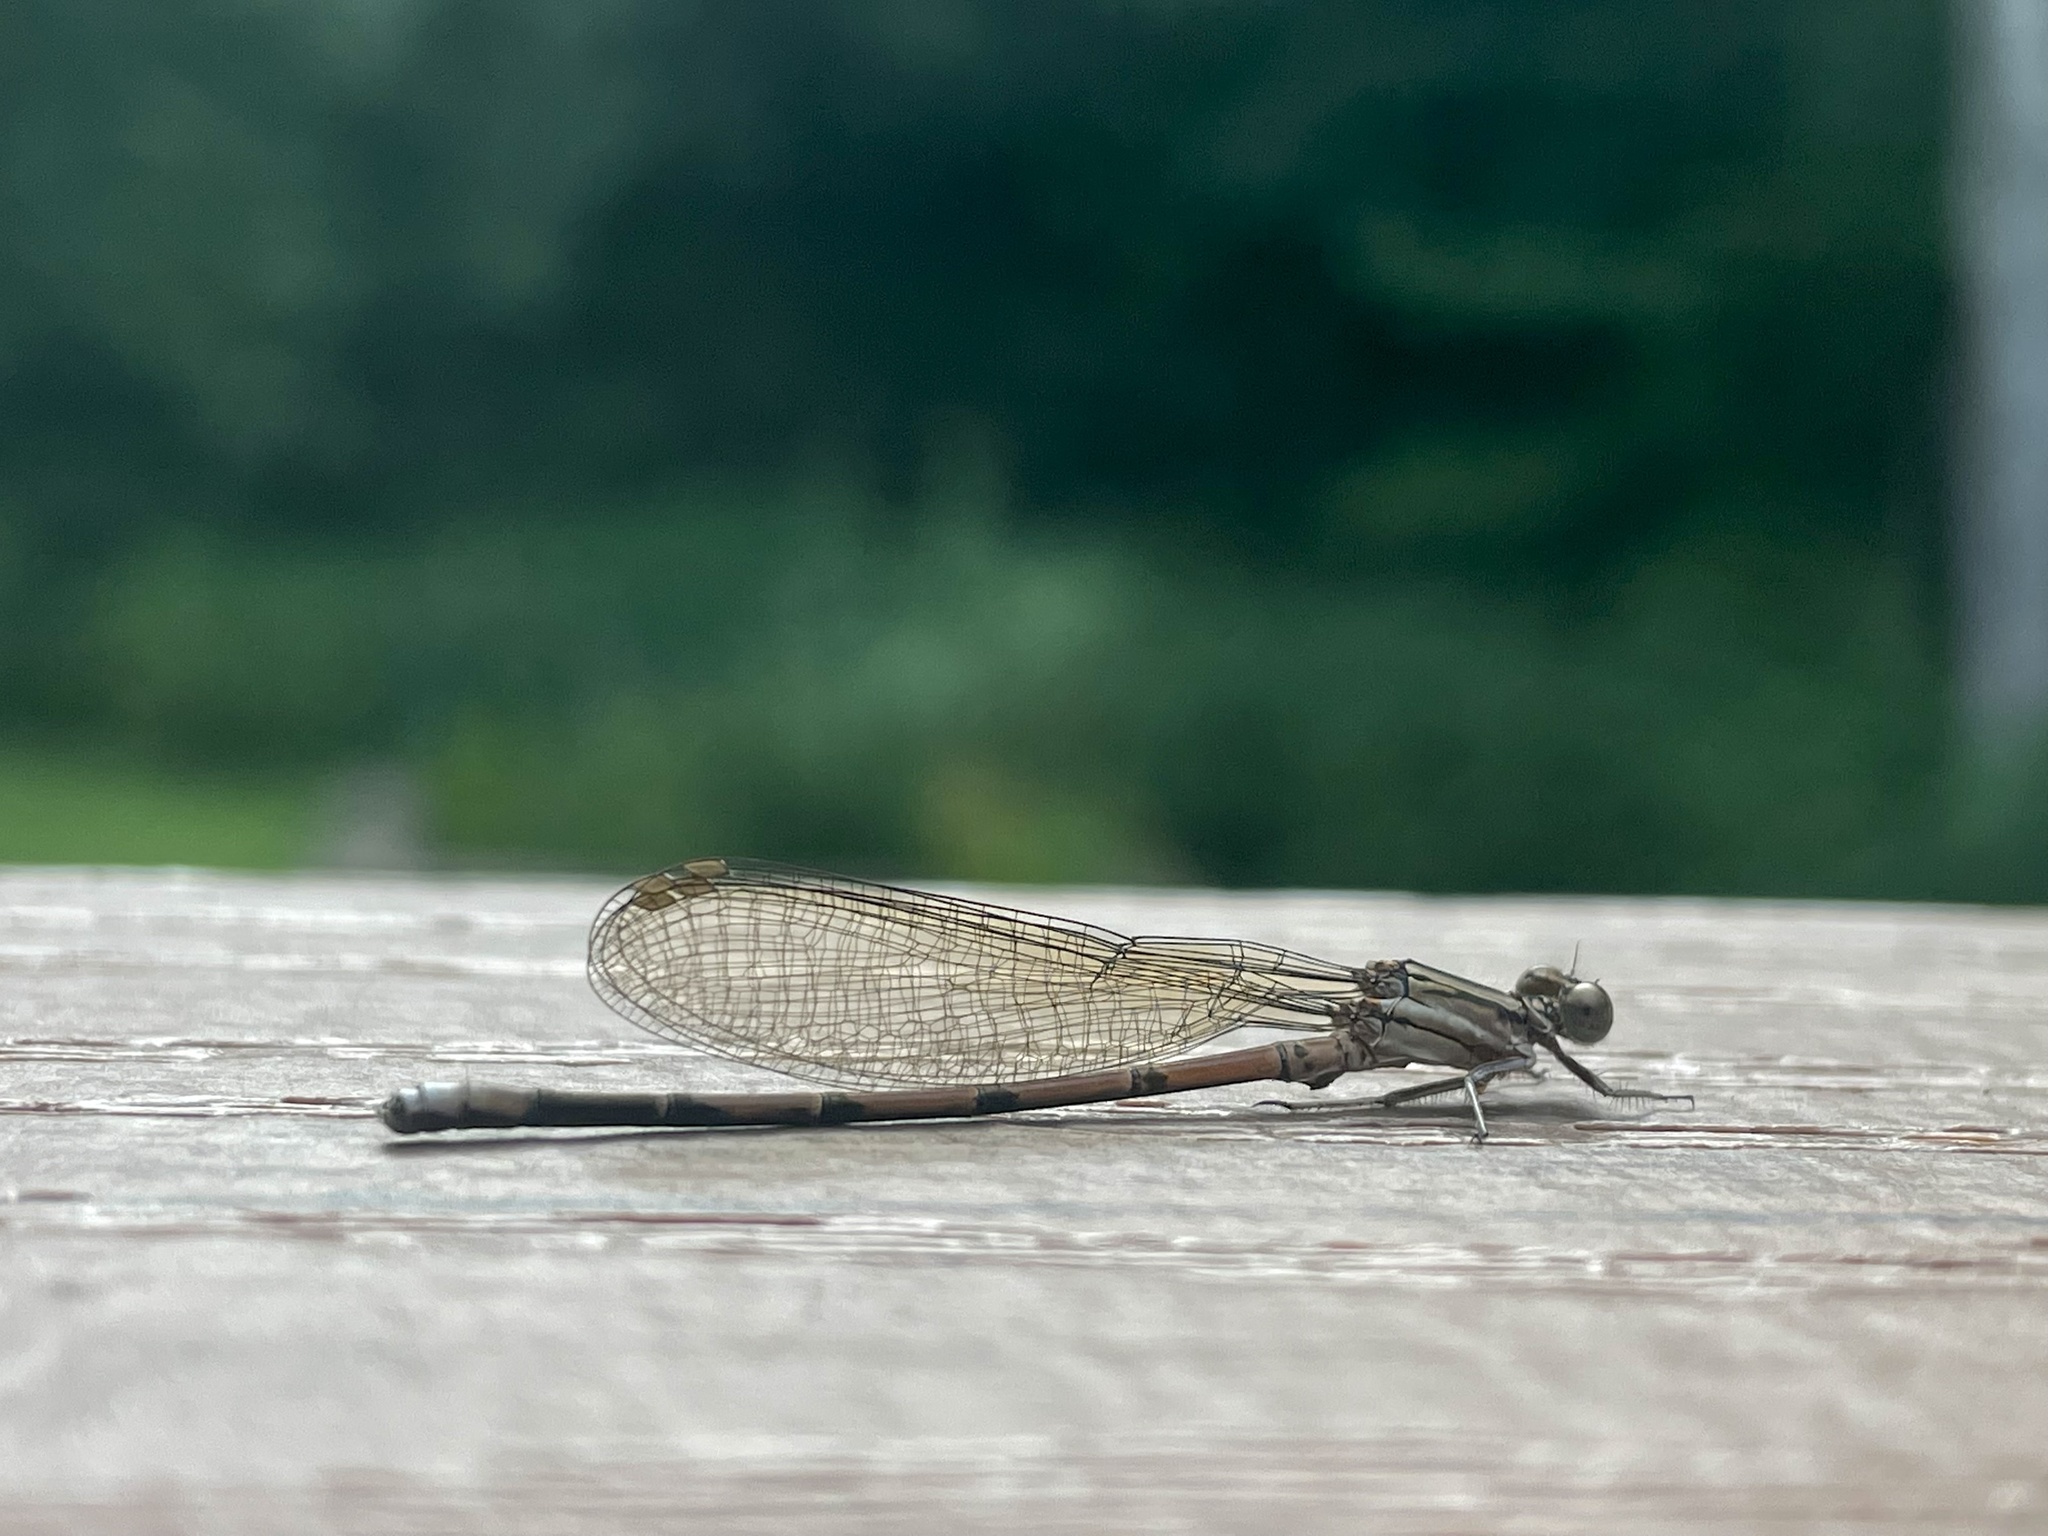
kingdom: Animalia
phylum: Arthropoda
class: Insecta
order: Odonata
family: Coenagrionidae
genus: Argia
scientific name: Argia fumipennis
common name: Variable dancer
